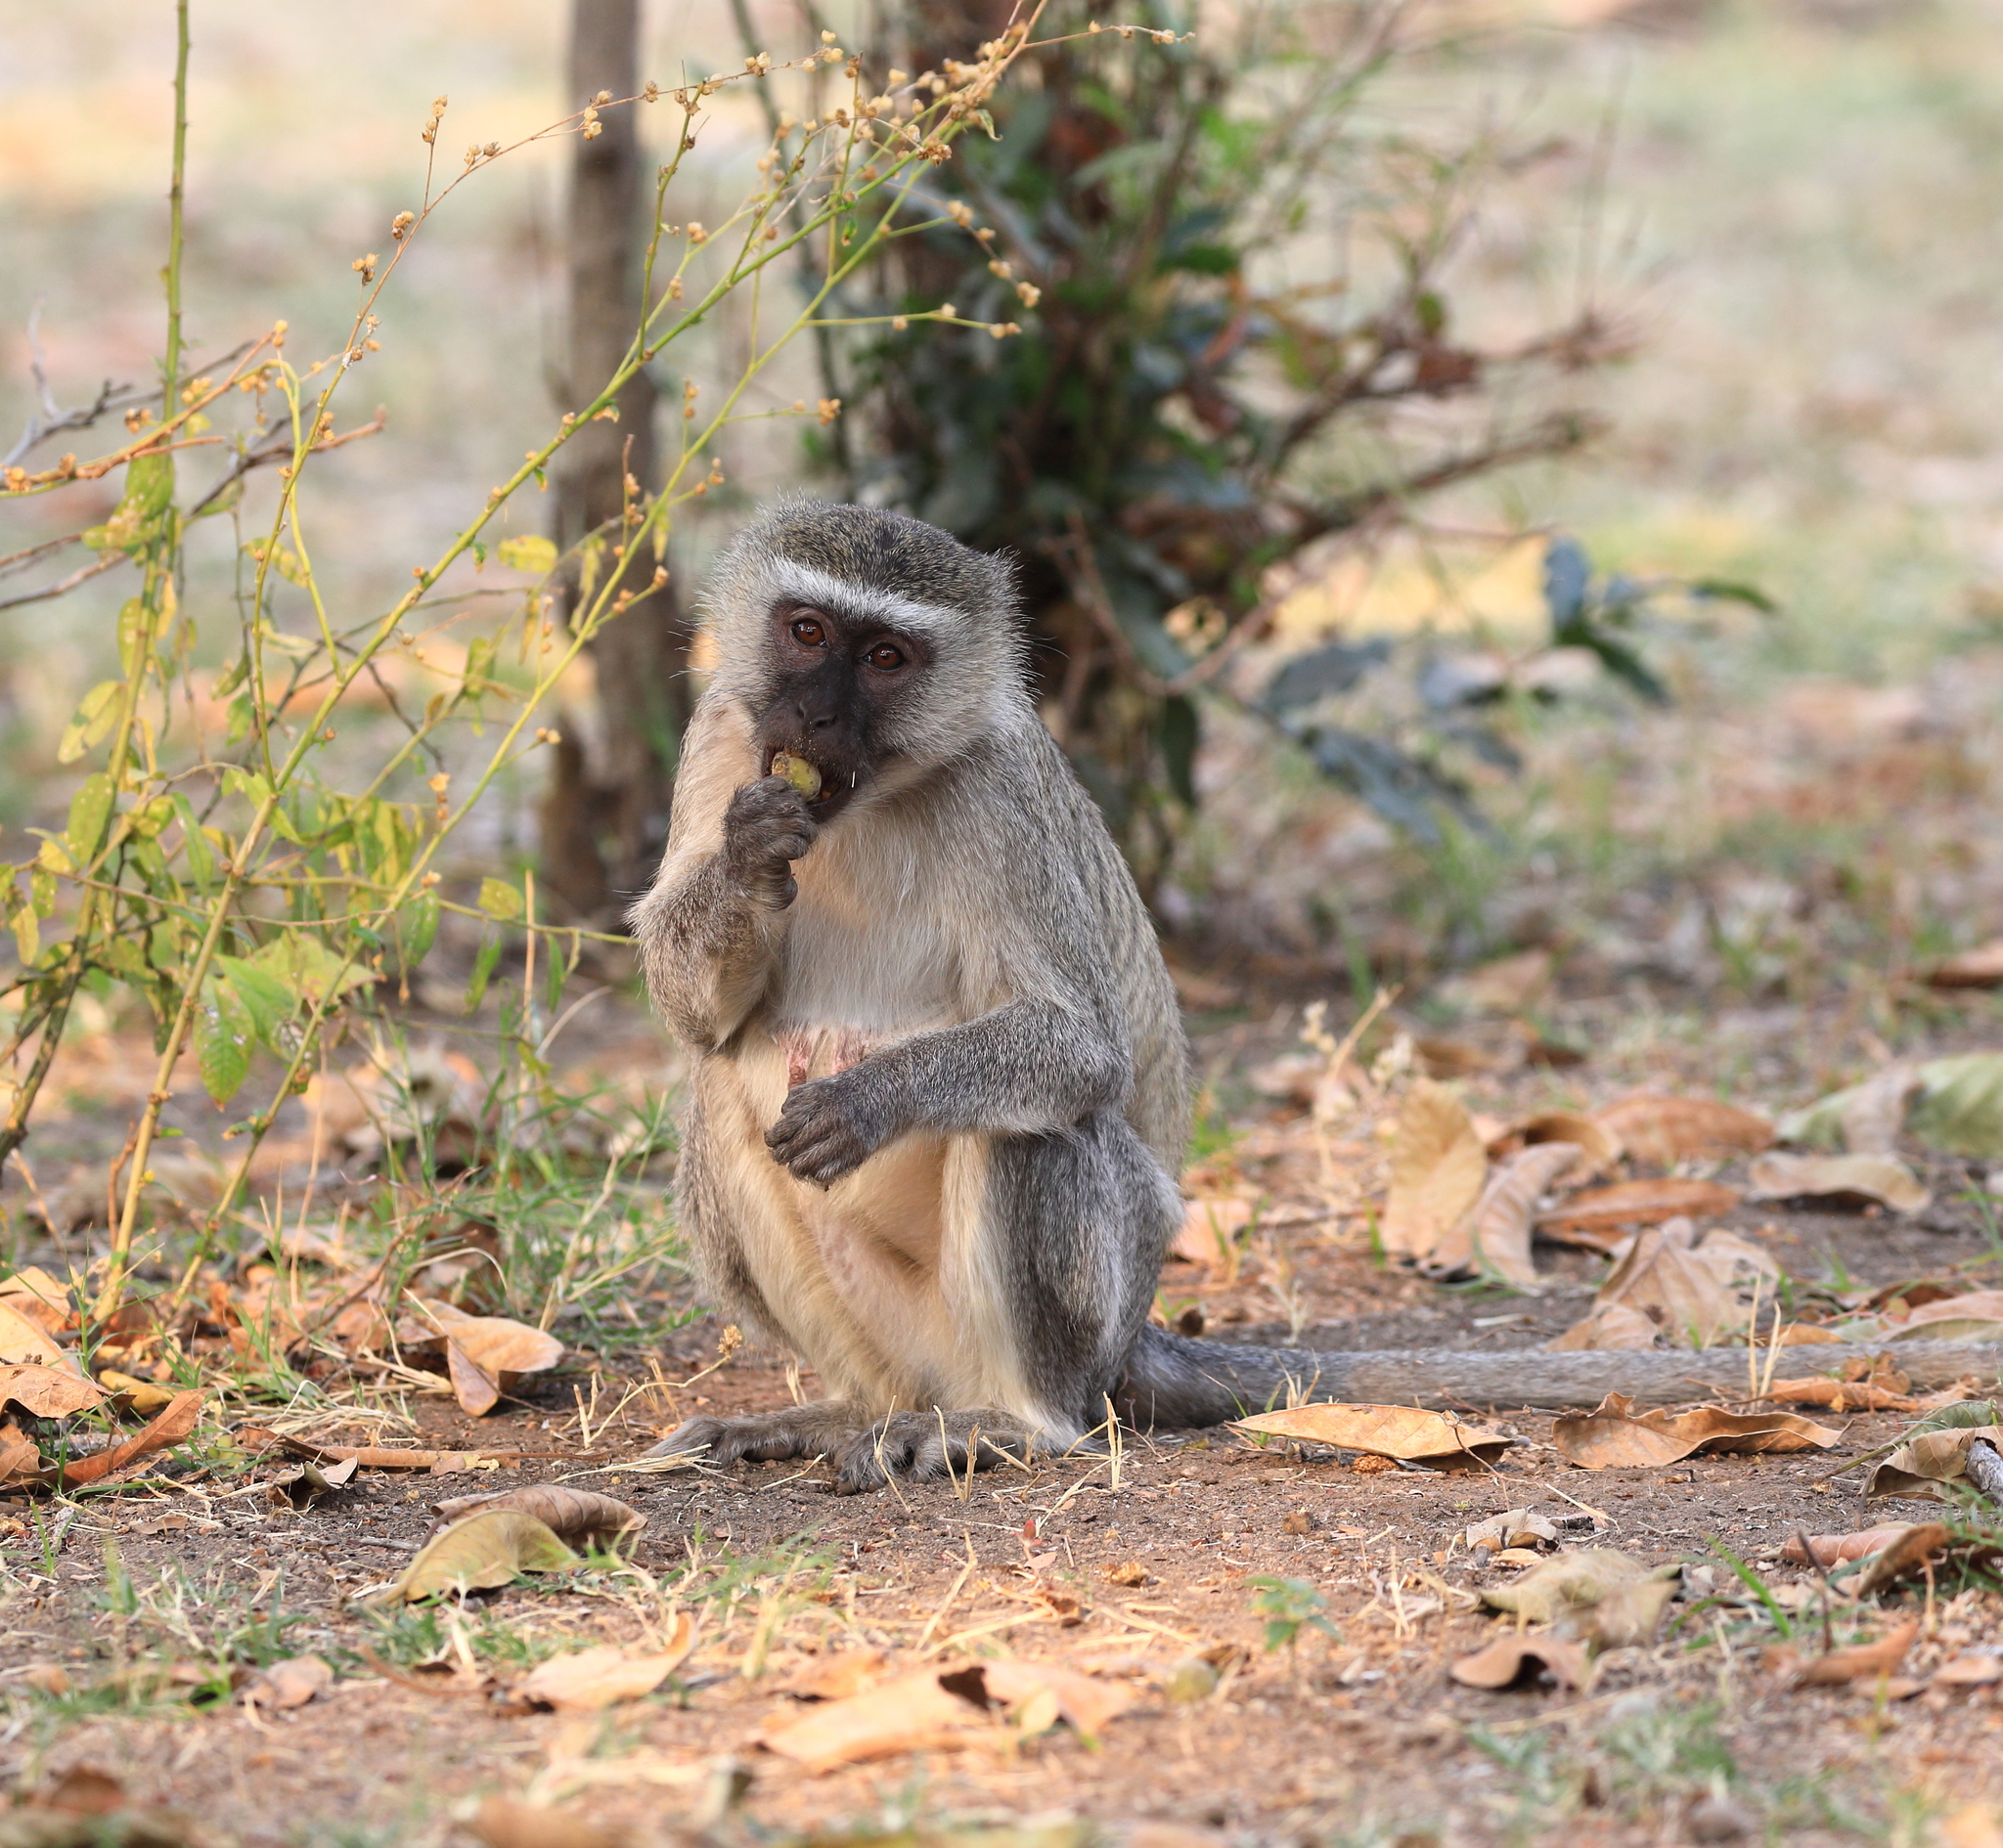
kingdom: Animalia
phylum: Chordata
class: Mammalia
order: Primates
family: Cercopithecidae
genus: Chlorocebus
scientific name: Chlorocebus pygerythrus
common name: Vervet monkey
